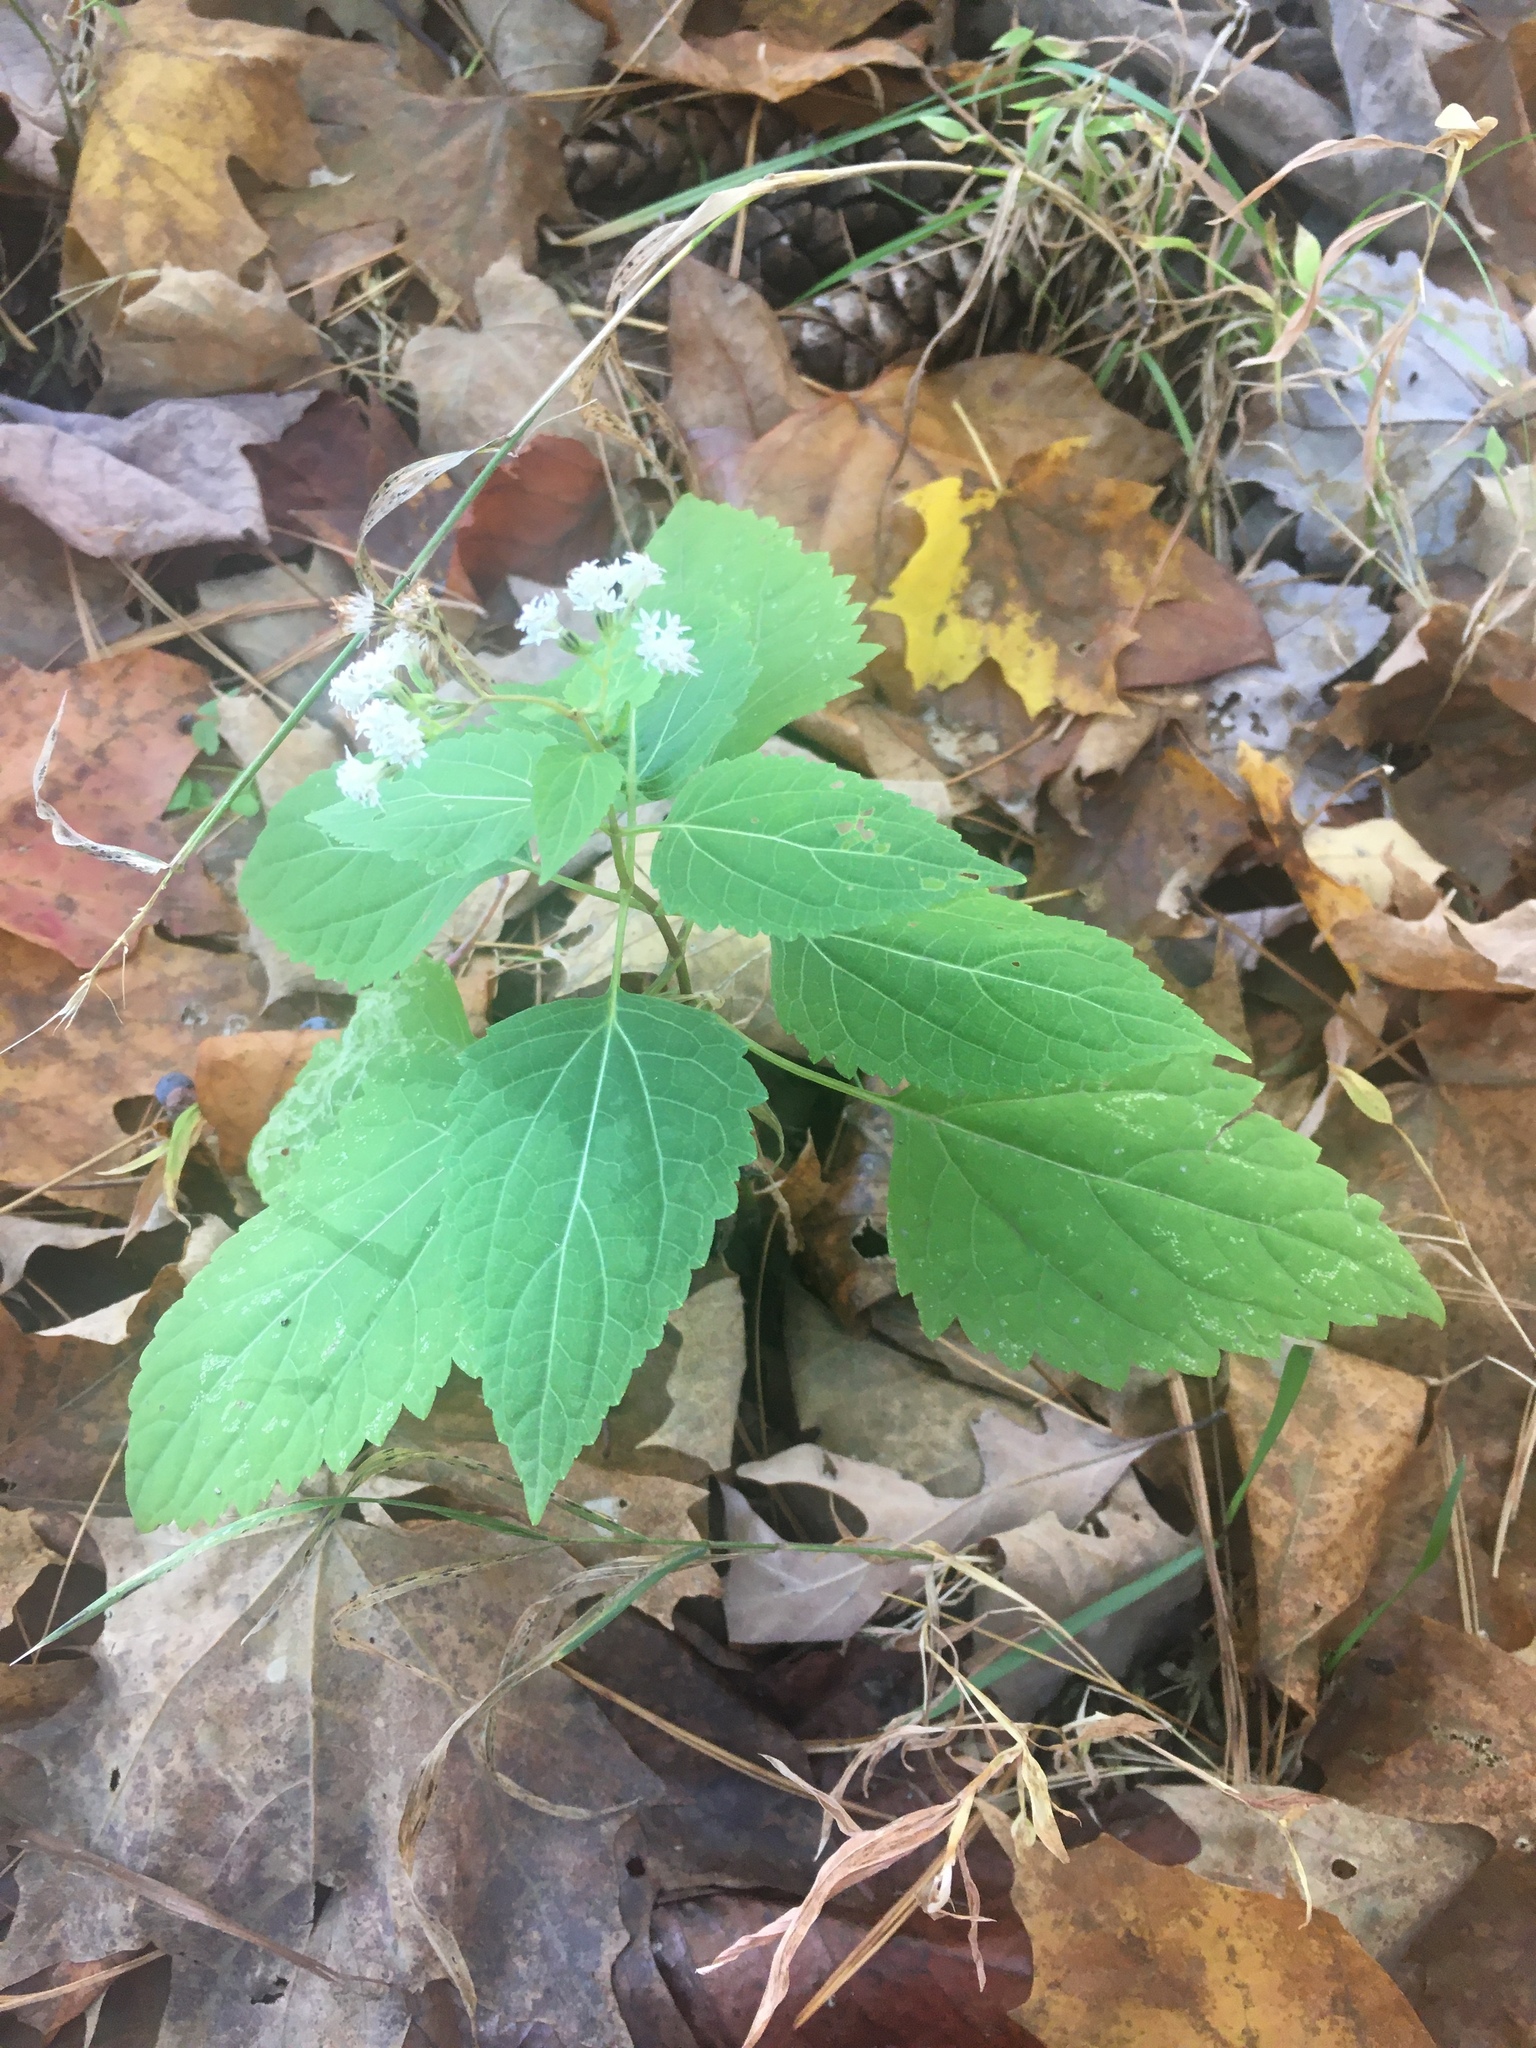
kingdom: Plantae
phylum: Tracheophyta
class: Magnoliopsida
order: Asterales
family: Asteraceae
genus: Ageratina
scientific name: Ageratina altissima
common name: White snakeroot
